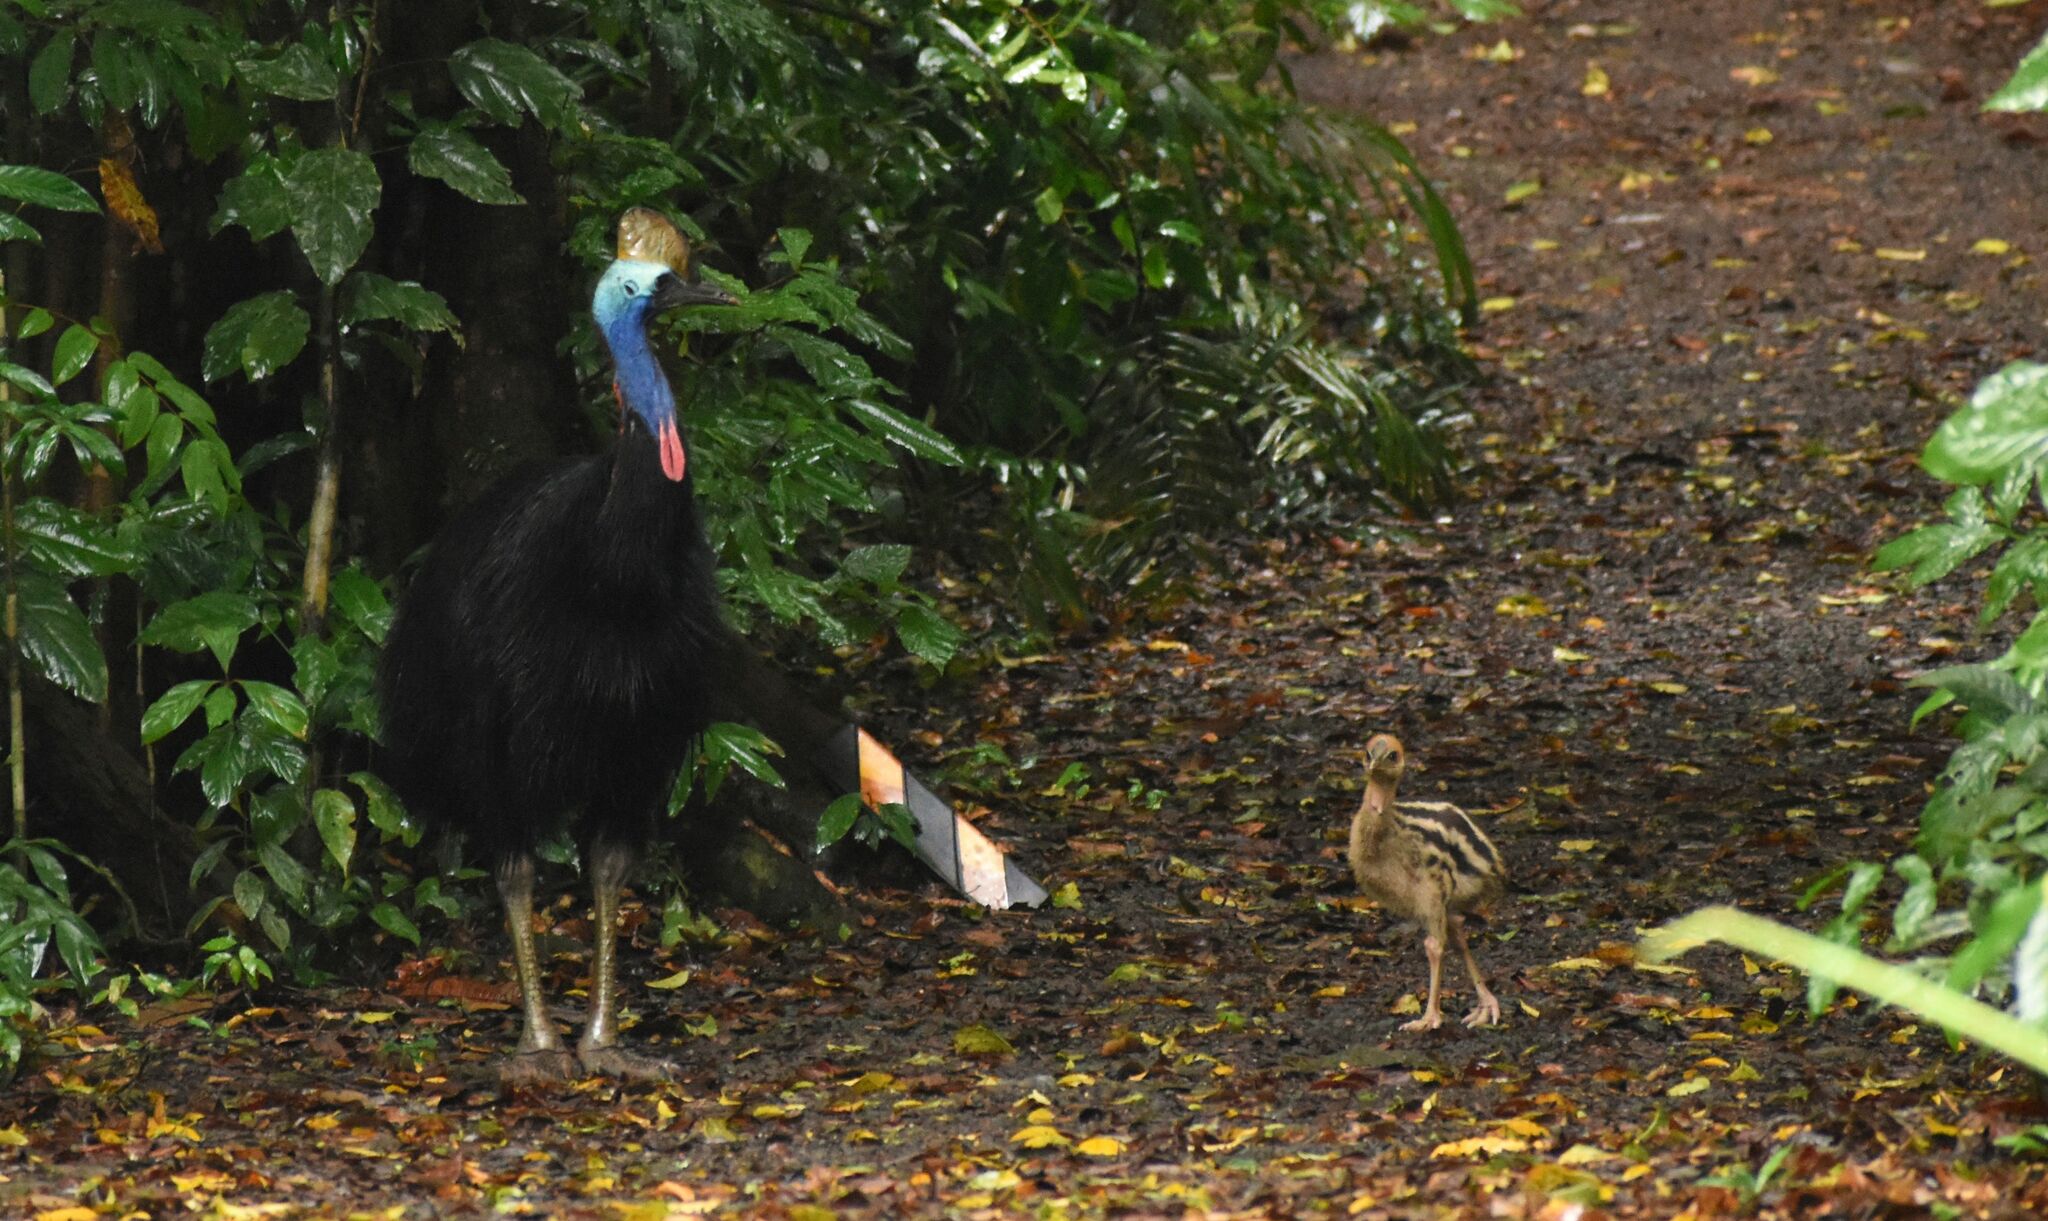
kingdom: Animalia
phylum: Chordata
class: Aves
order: Casuariiformes
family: Casuariidae
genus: Casuarius
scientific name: Casuarius casuarius
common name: Southern cassowary
